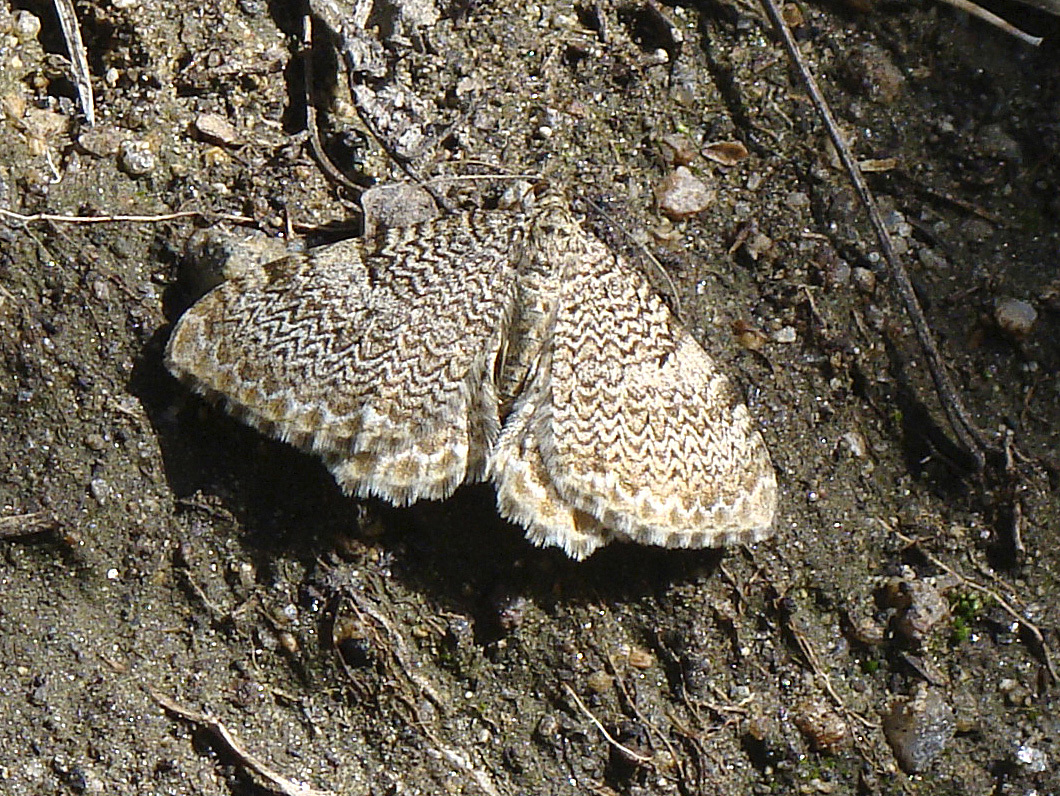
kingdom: Animalia
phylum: Arthropoda
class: Insecta
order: Lepidoptera
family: Geometridae
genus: Rheumaptera
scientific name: Rheumaptera undulata
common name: Scallop shell
